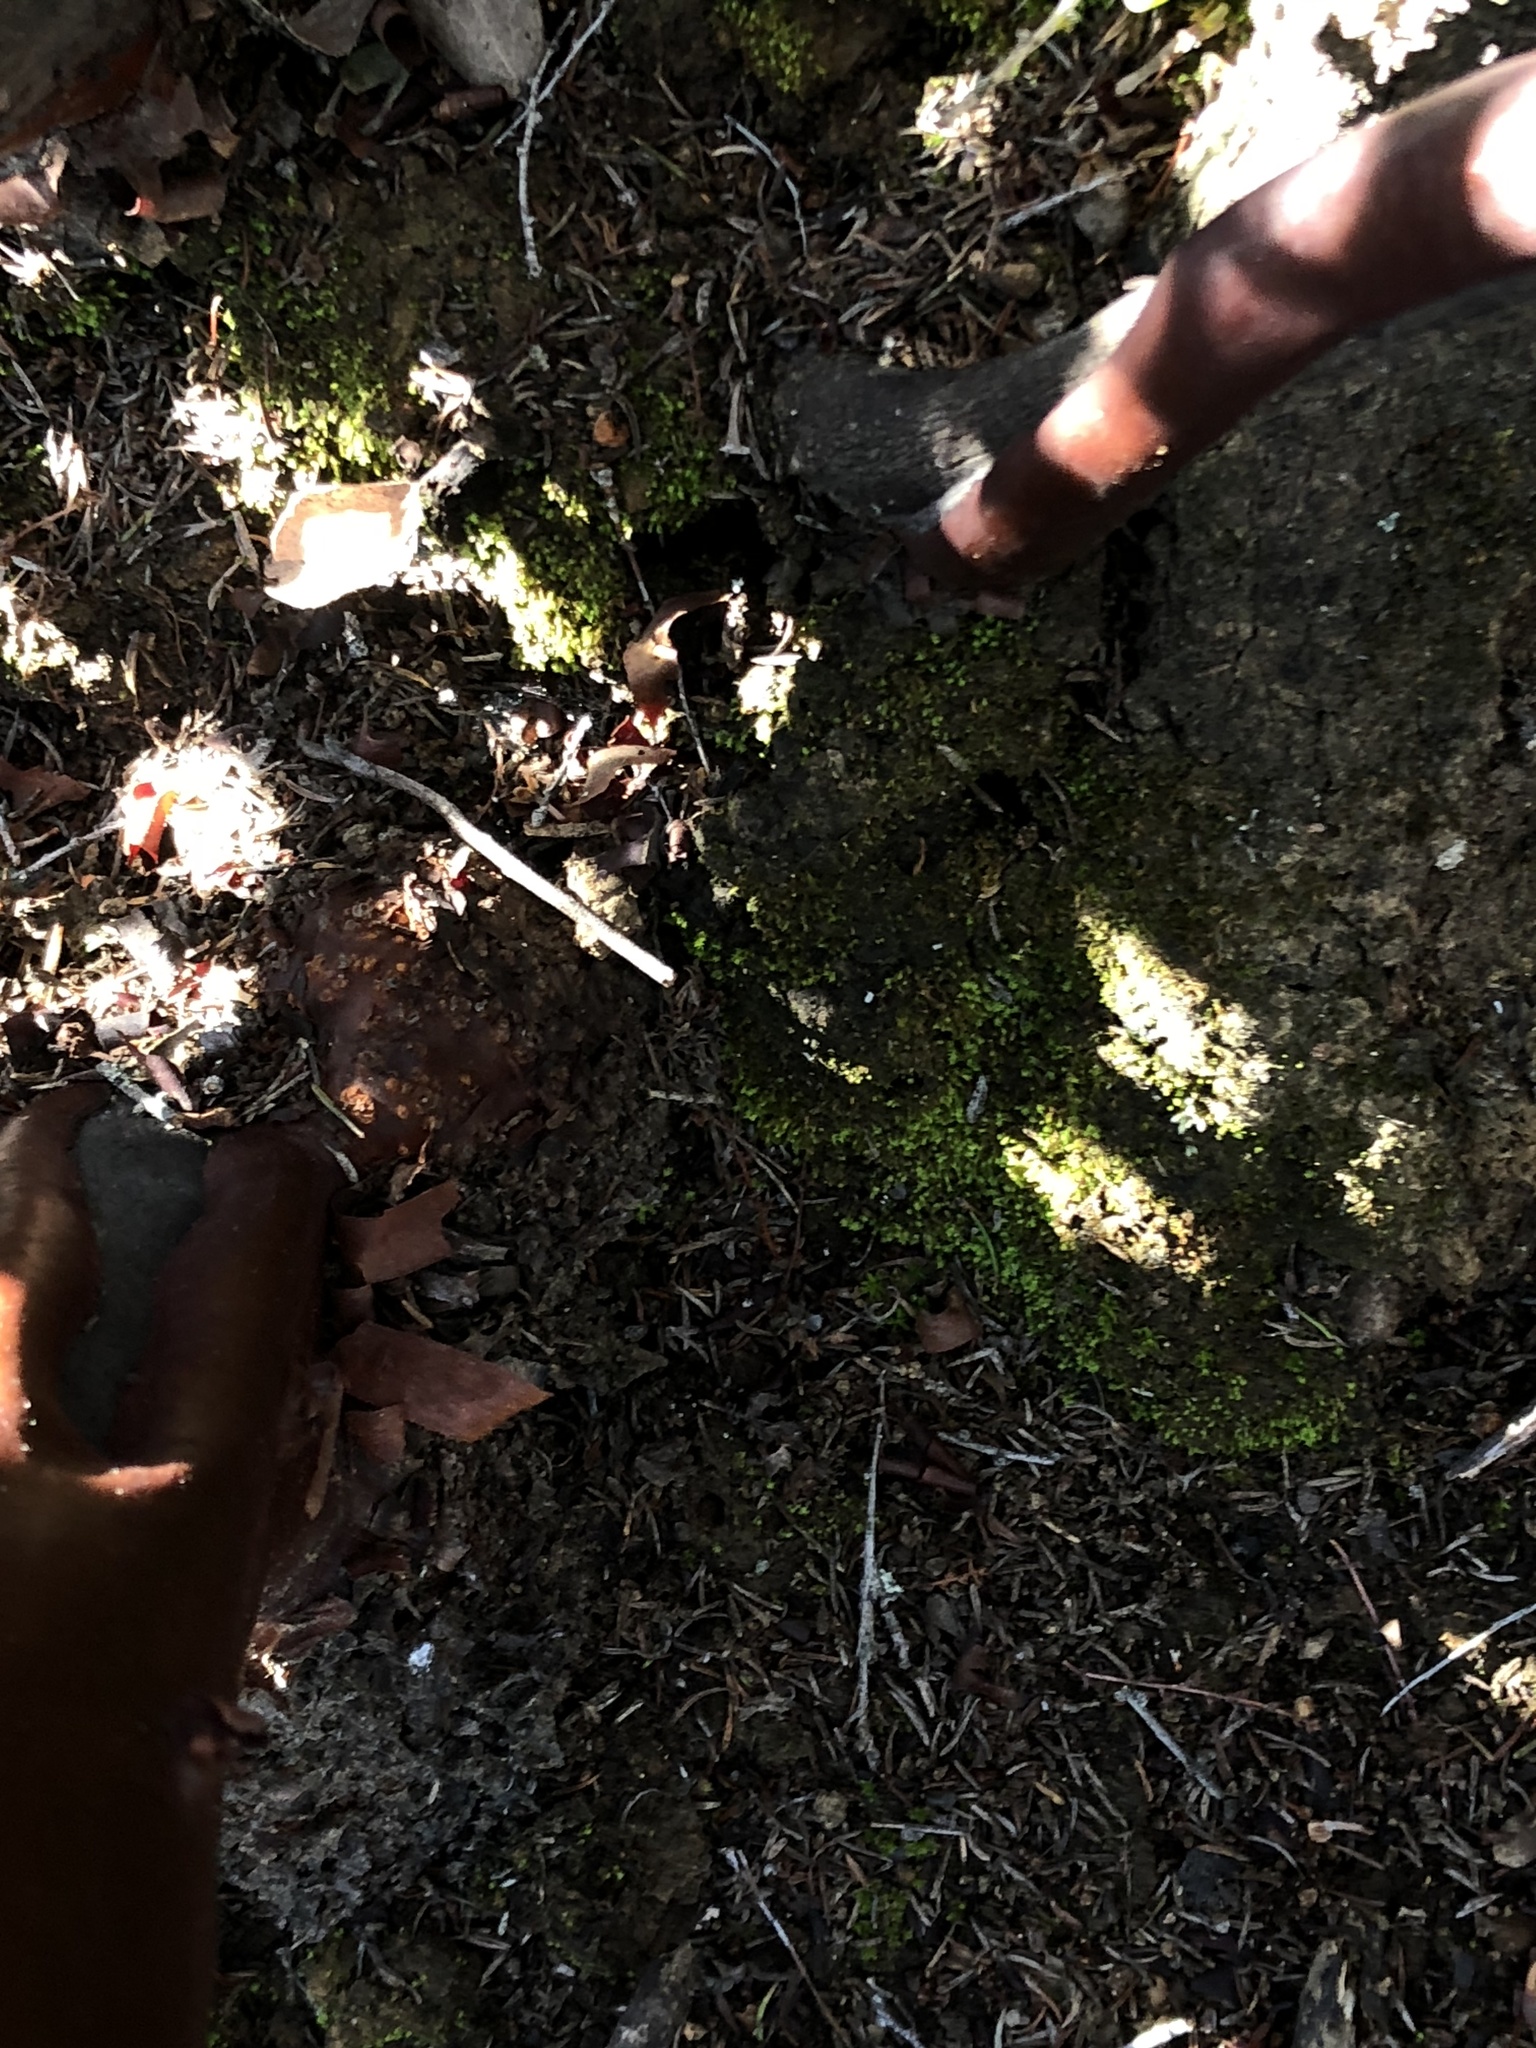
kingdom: Plantae
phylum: Tracheophyta
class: Magnoliopsida
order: Ericales
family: Ericaceae
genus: Arctostaphylos
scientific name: Arctostaphylos glandulosa
